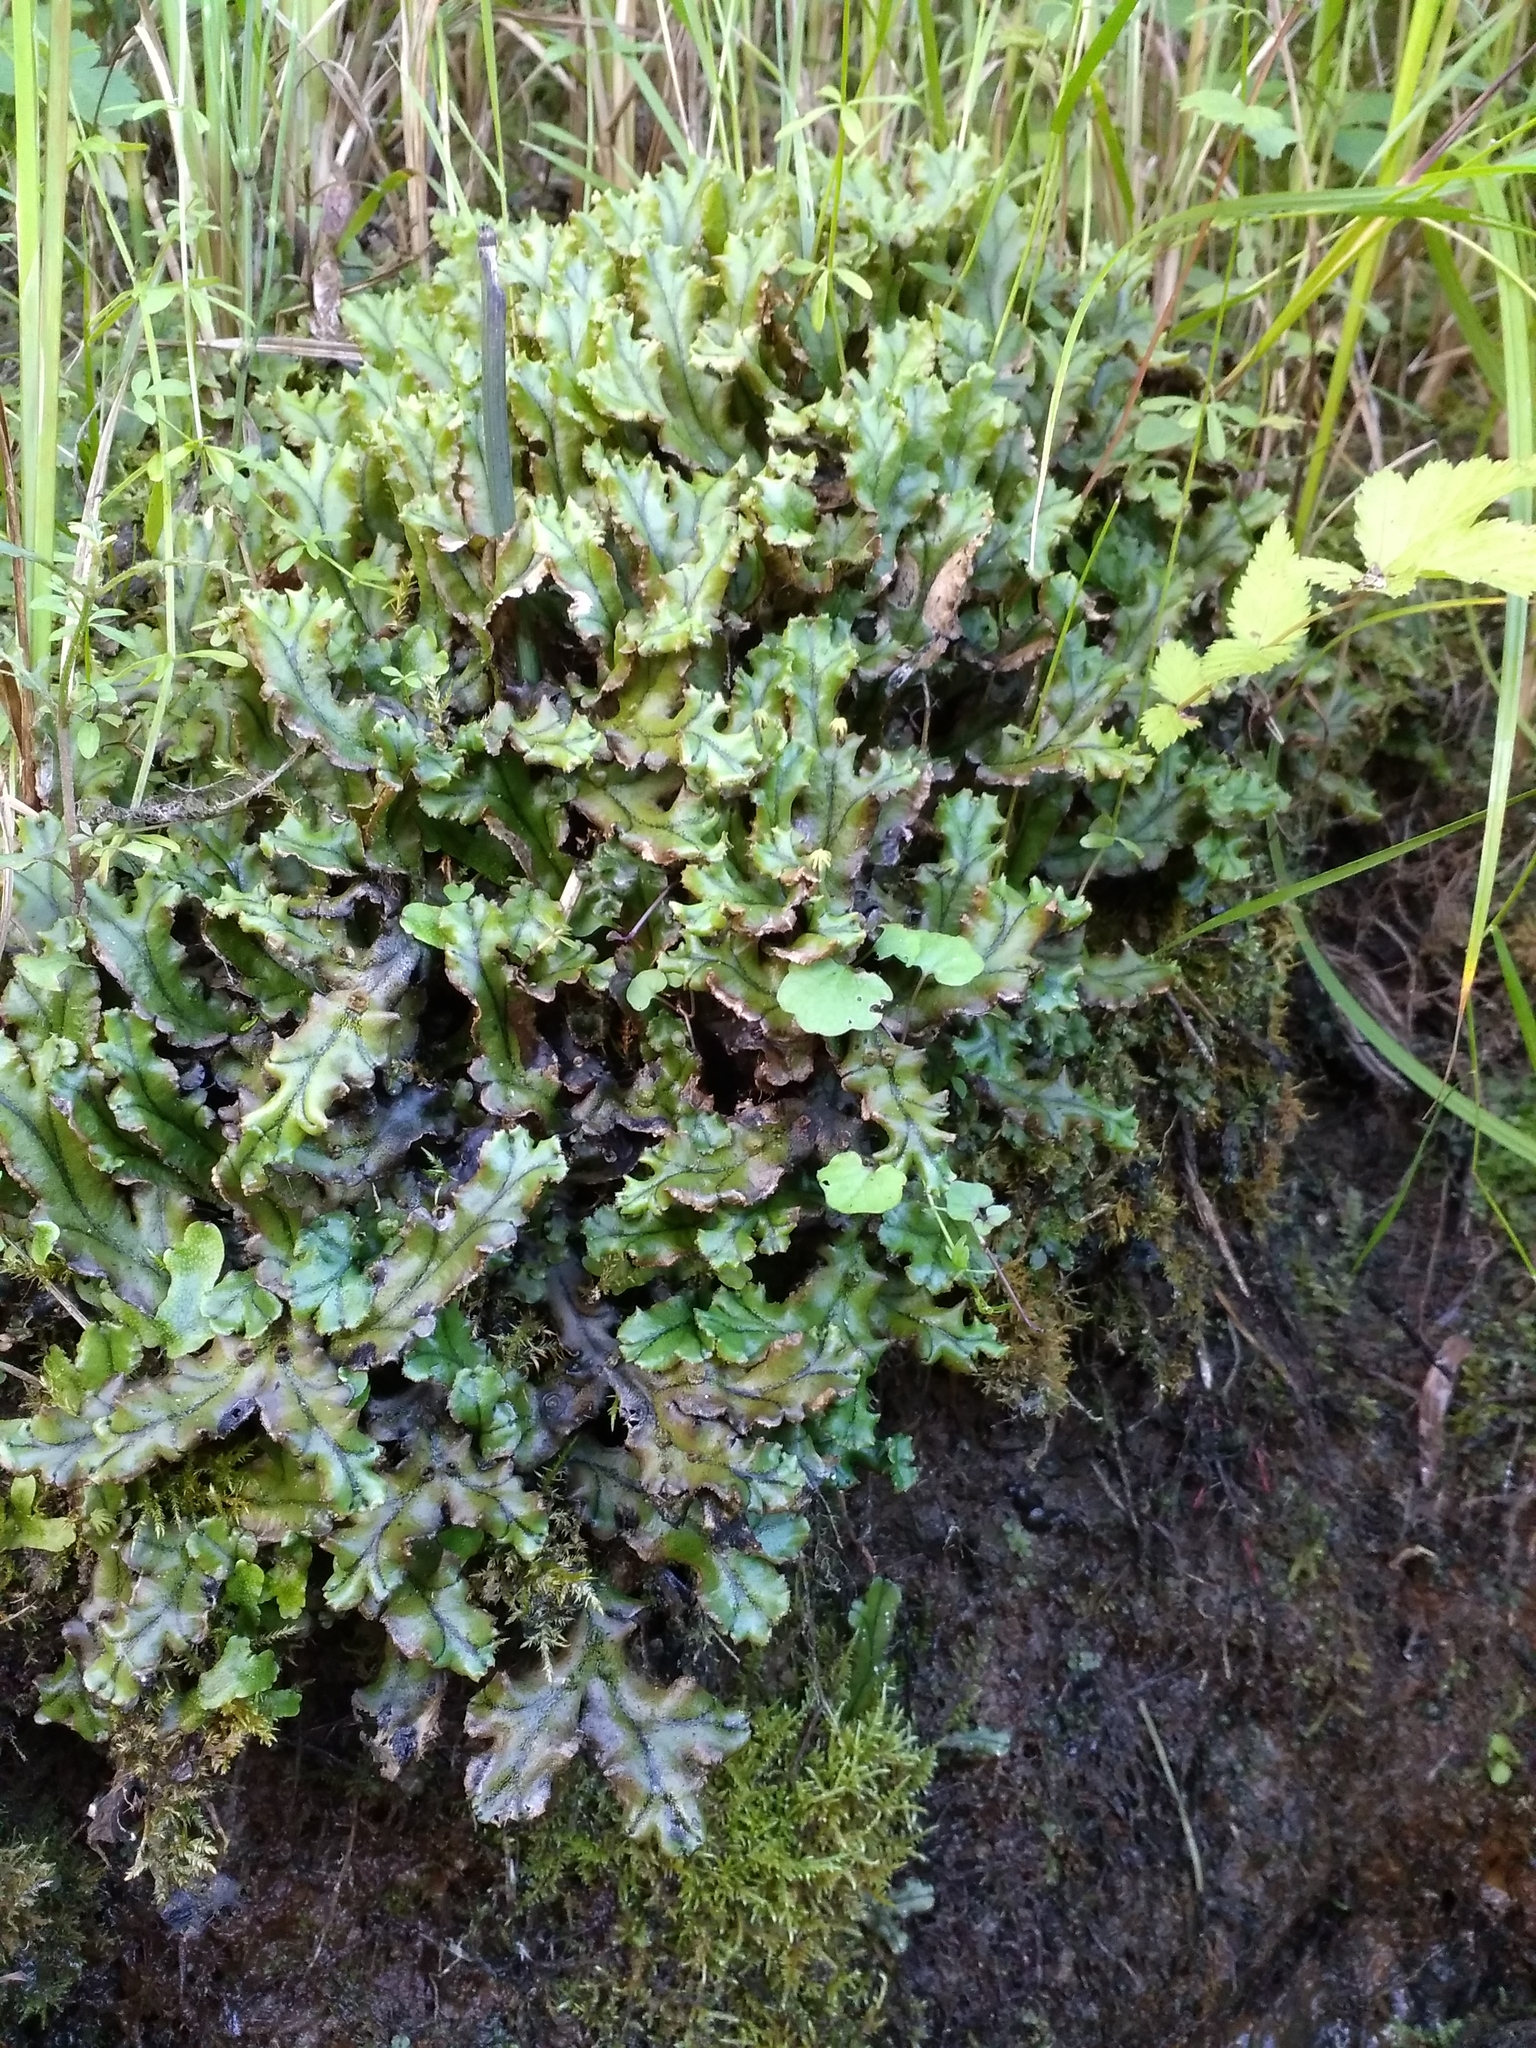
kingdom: Plantae
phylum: Marchantiophyta
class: Marchantiopsida
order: Marchantiales
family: Marchantiaceae
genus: Marchantia
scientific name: Marchantia polymorpha
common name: Common liverwort
